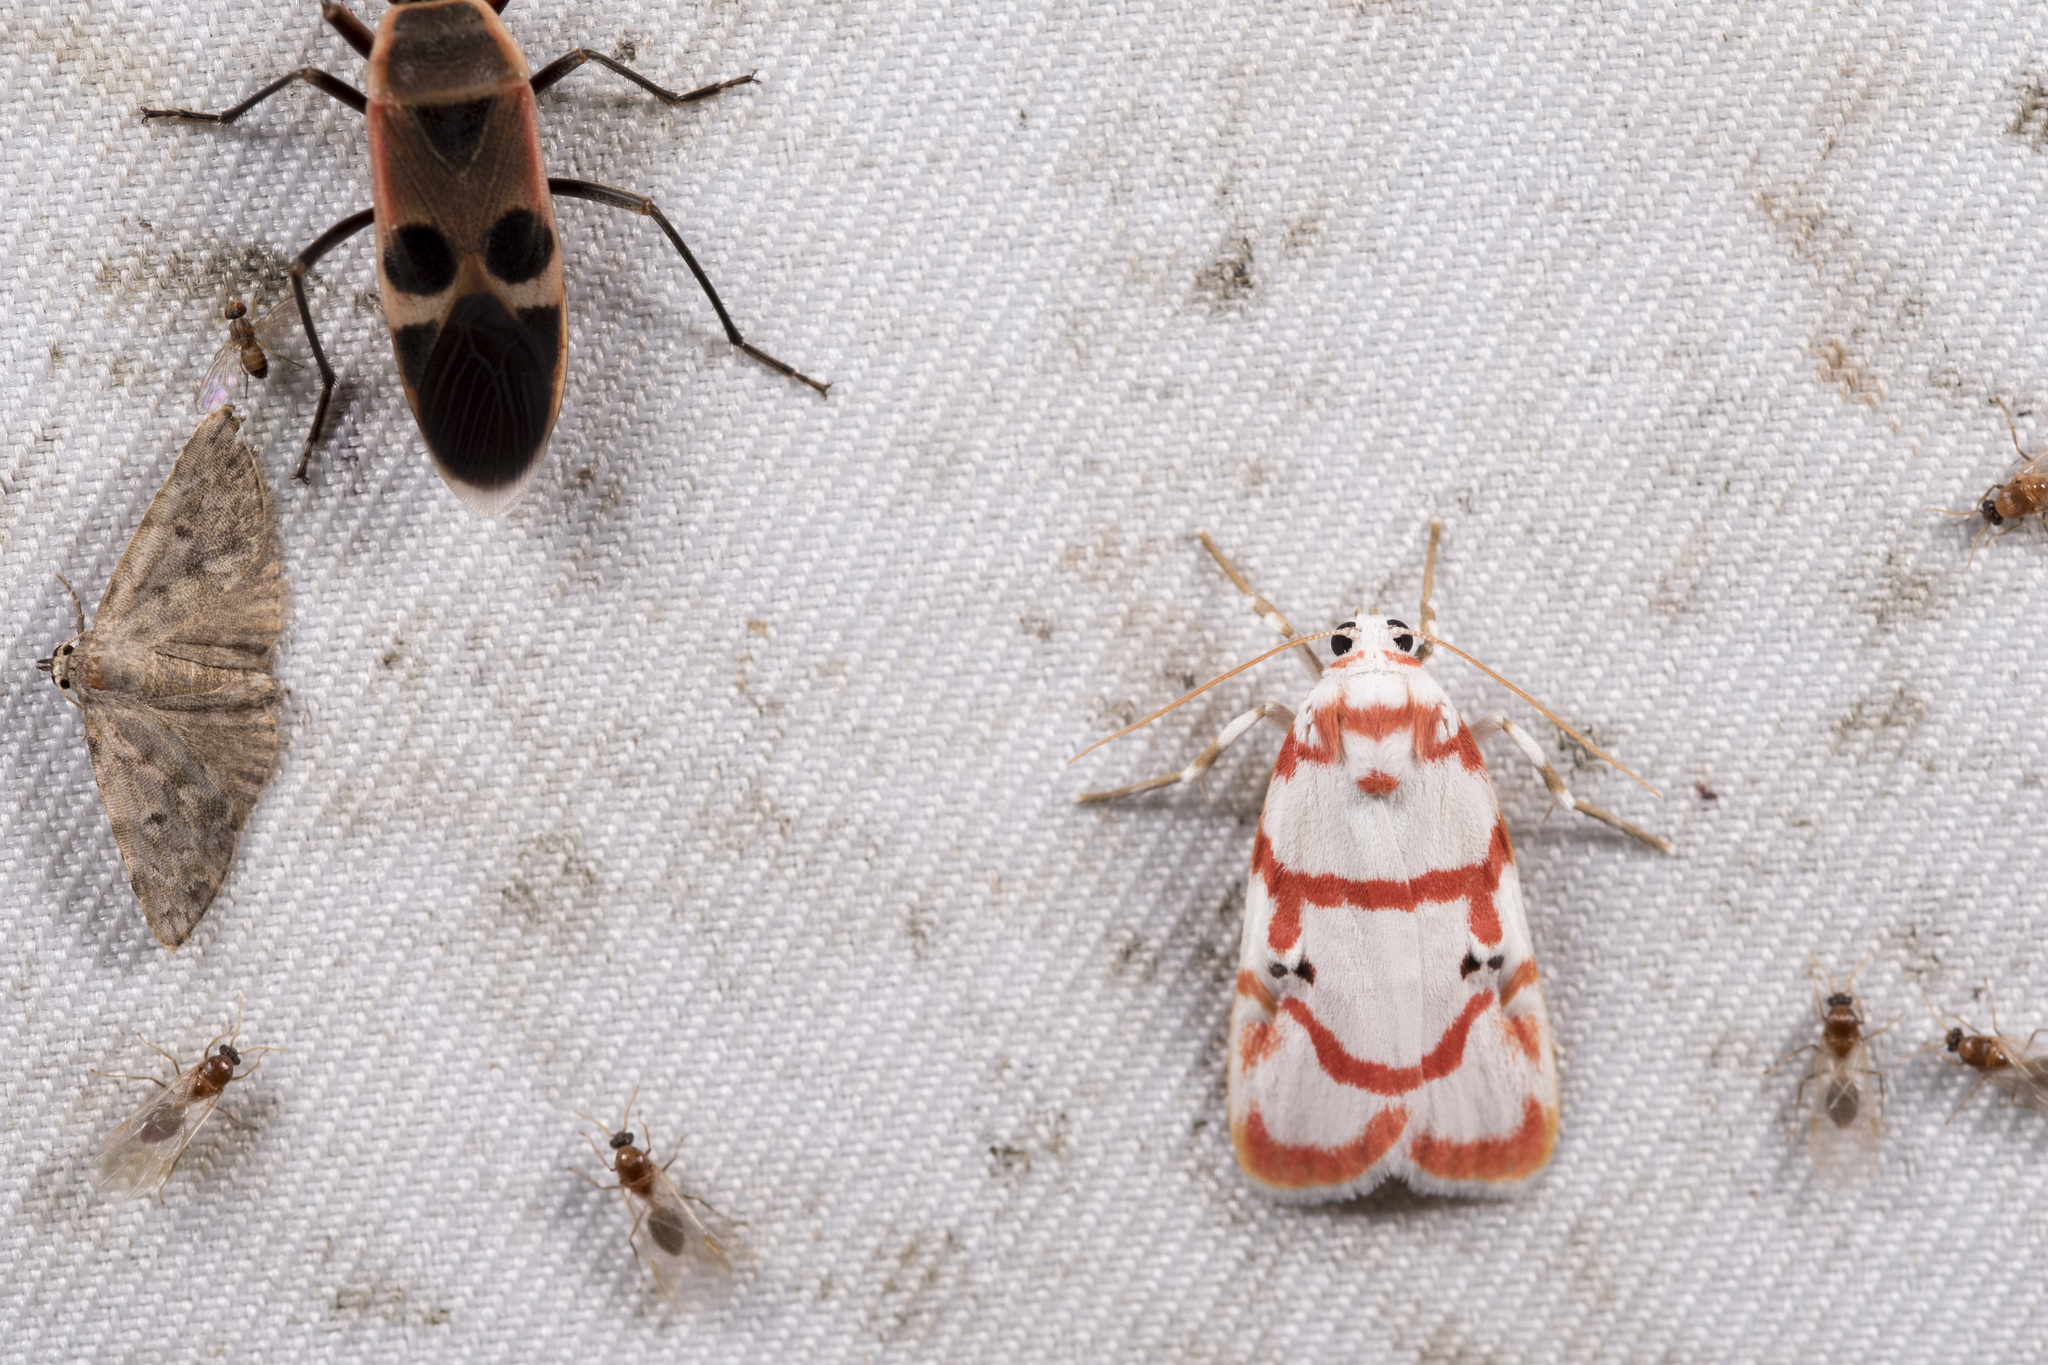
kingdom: Animalia
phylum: Arthropoda
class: Insecta
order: Lepidoptera
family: Erebidae
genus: Cyana
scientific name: Cyana hamata
